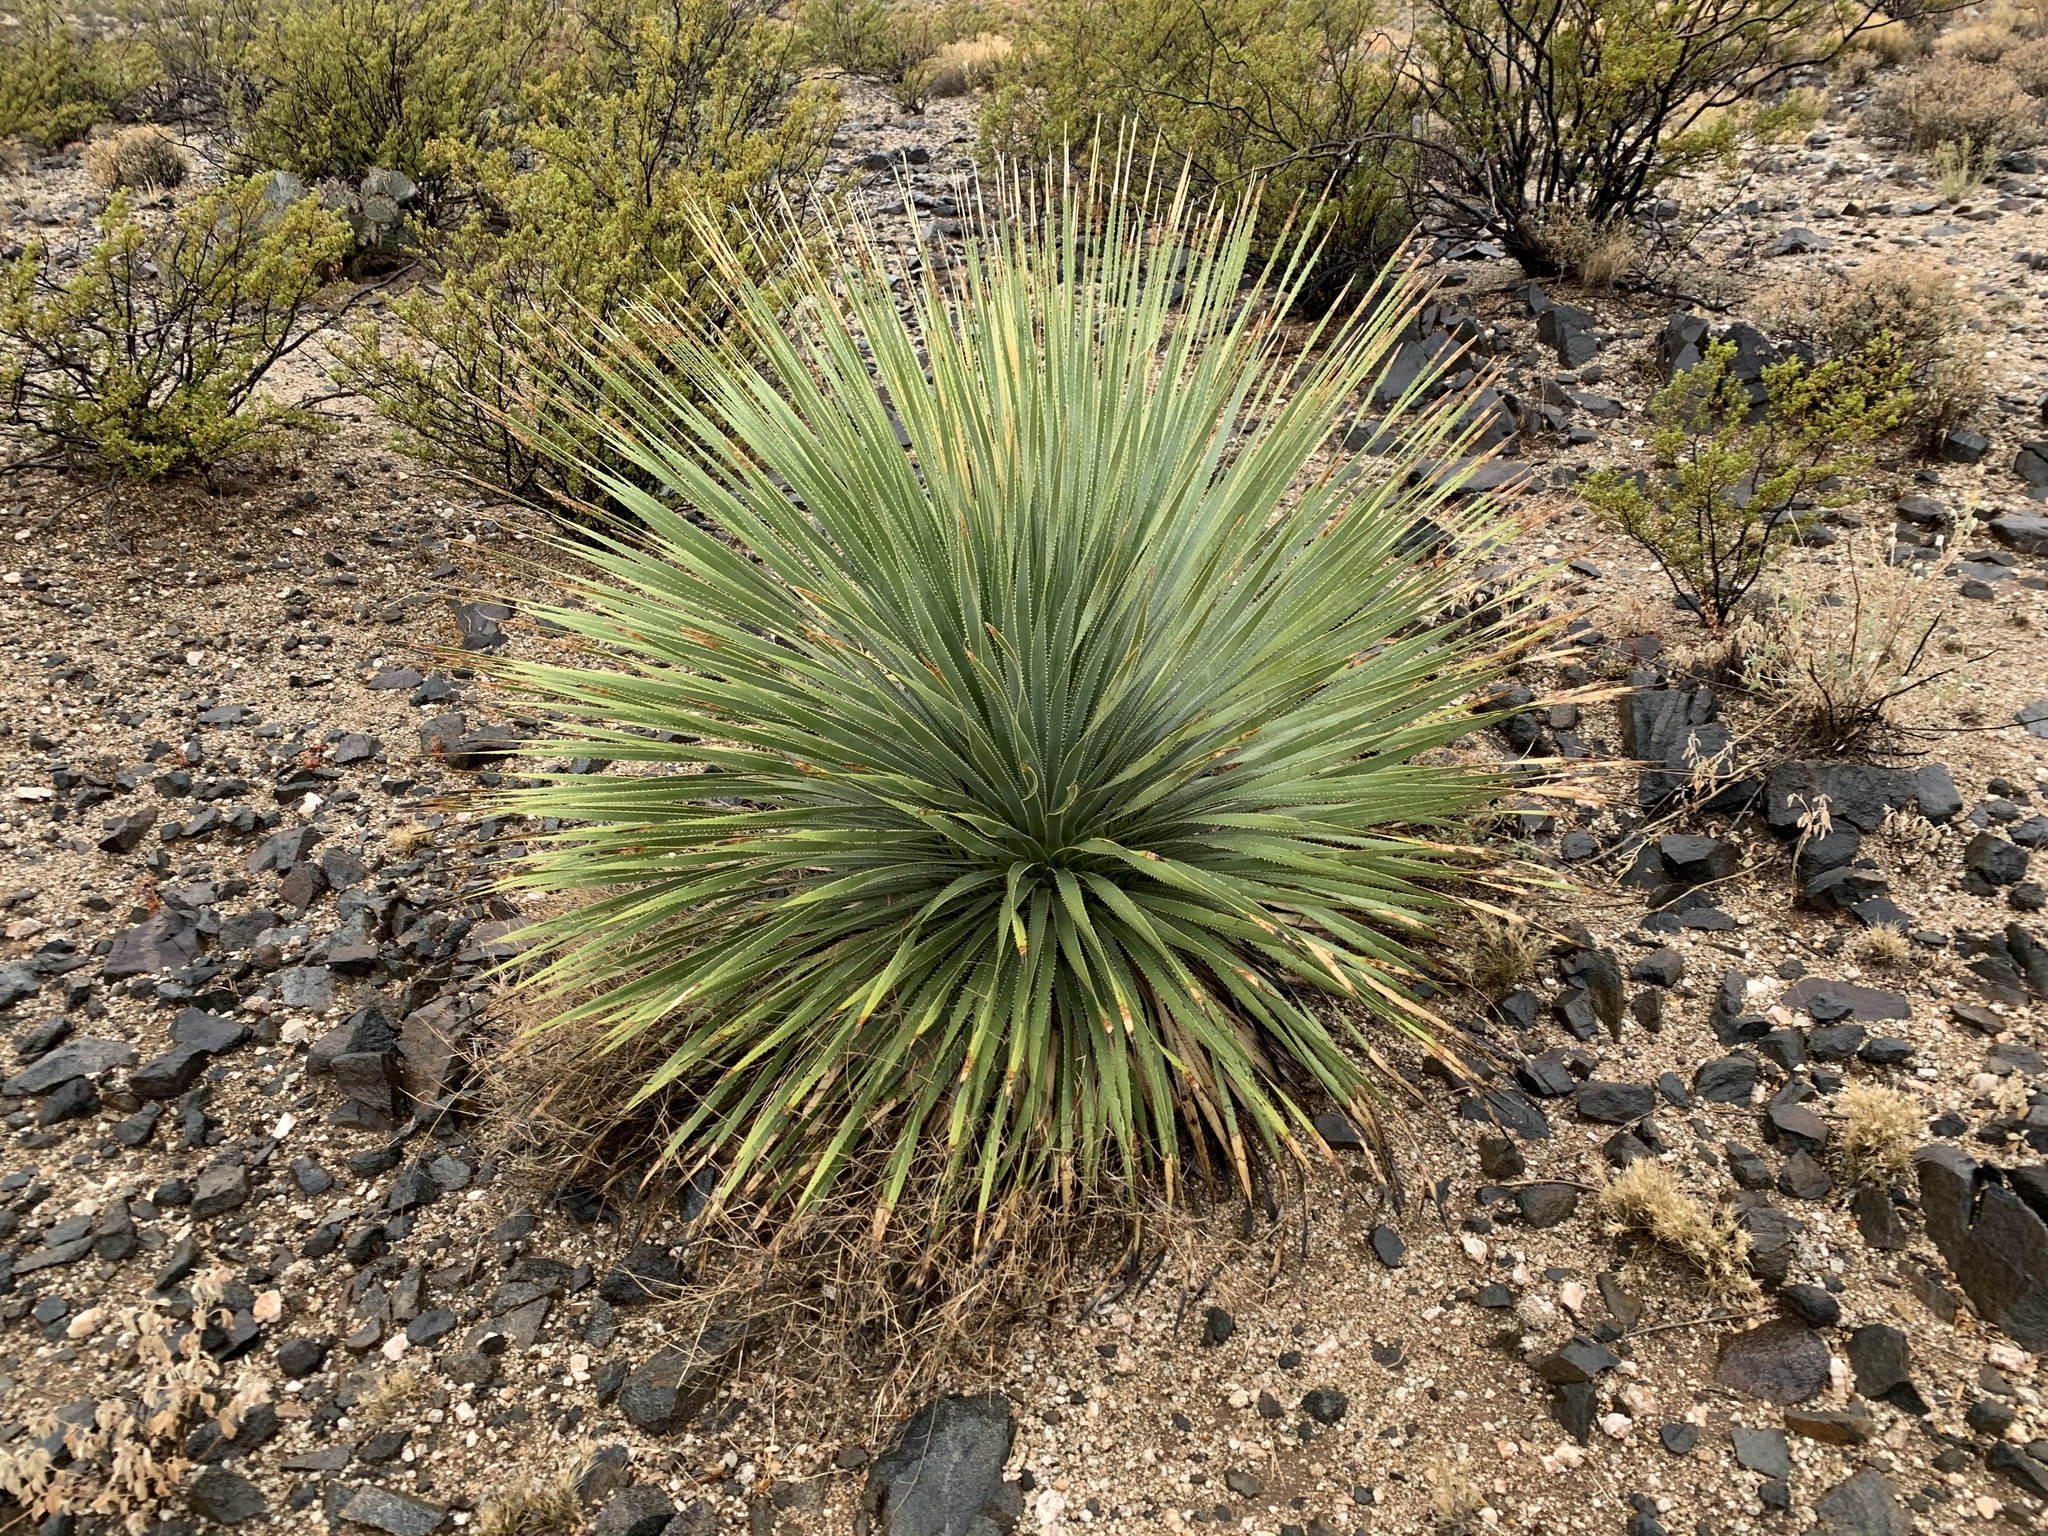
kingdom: Plantae
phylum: Tracheophyta
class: Liliopsida
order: Asparagales
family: Asparagaceae
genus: Dasylirion
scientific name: Dasylirion wheeleri
